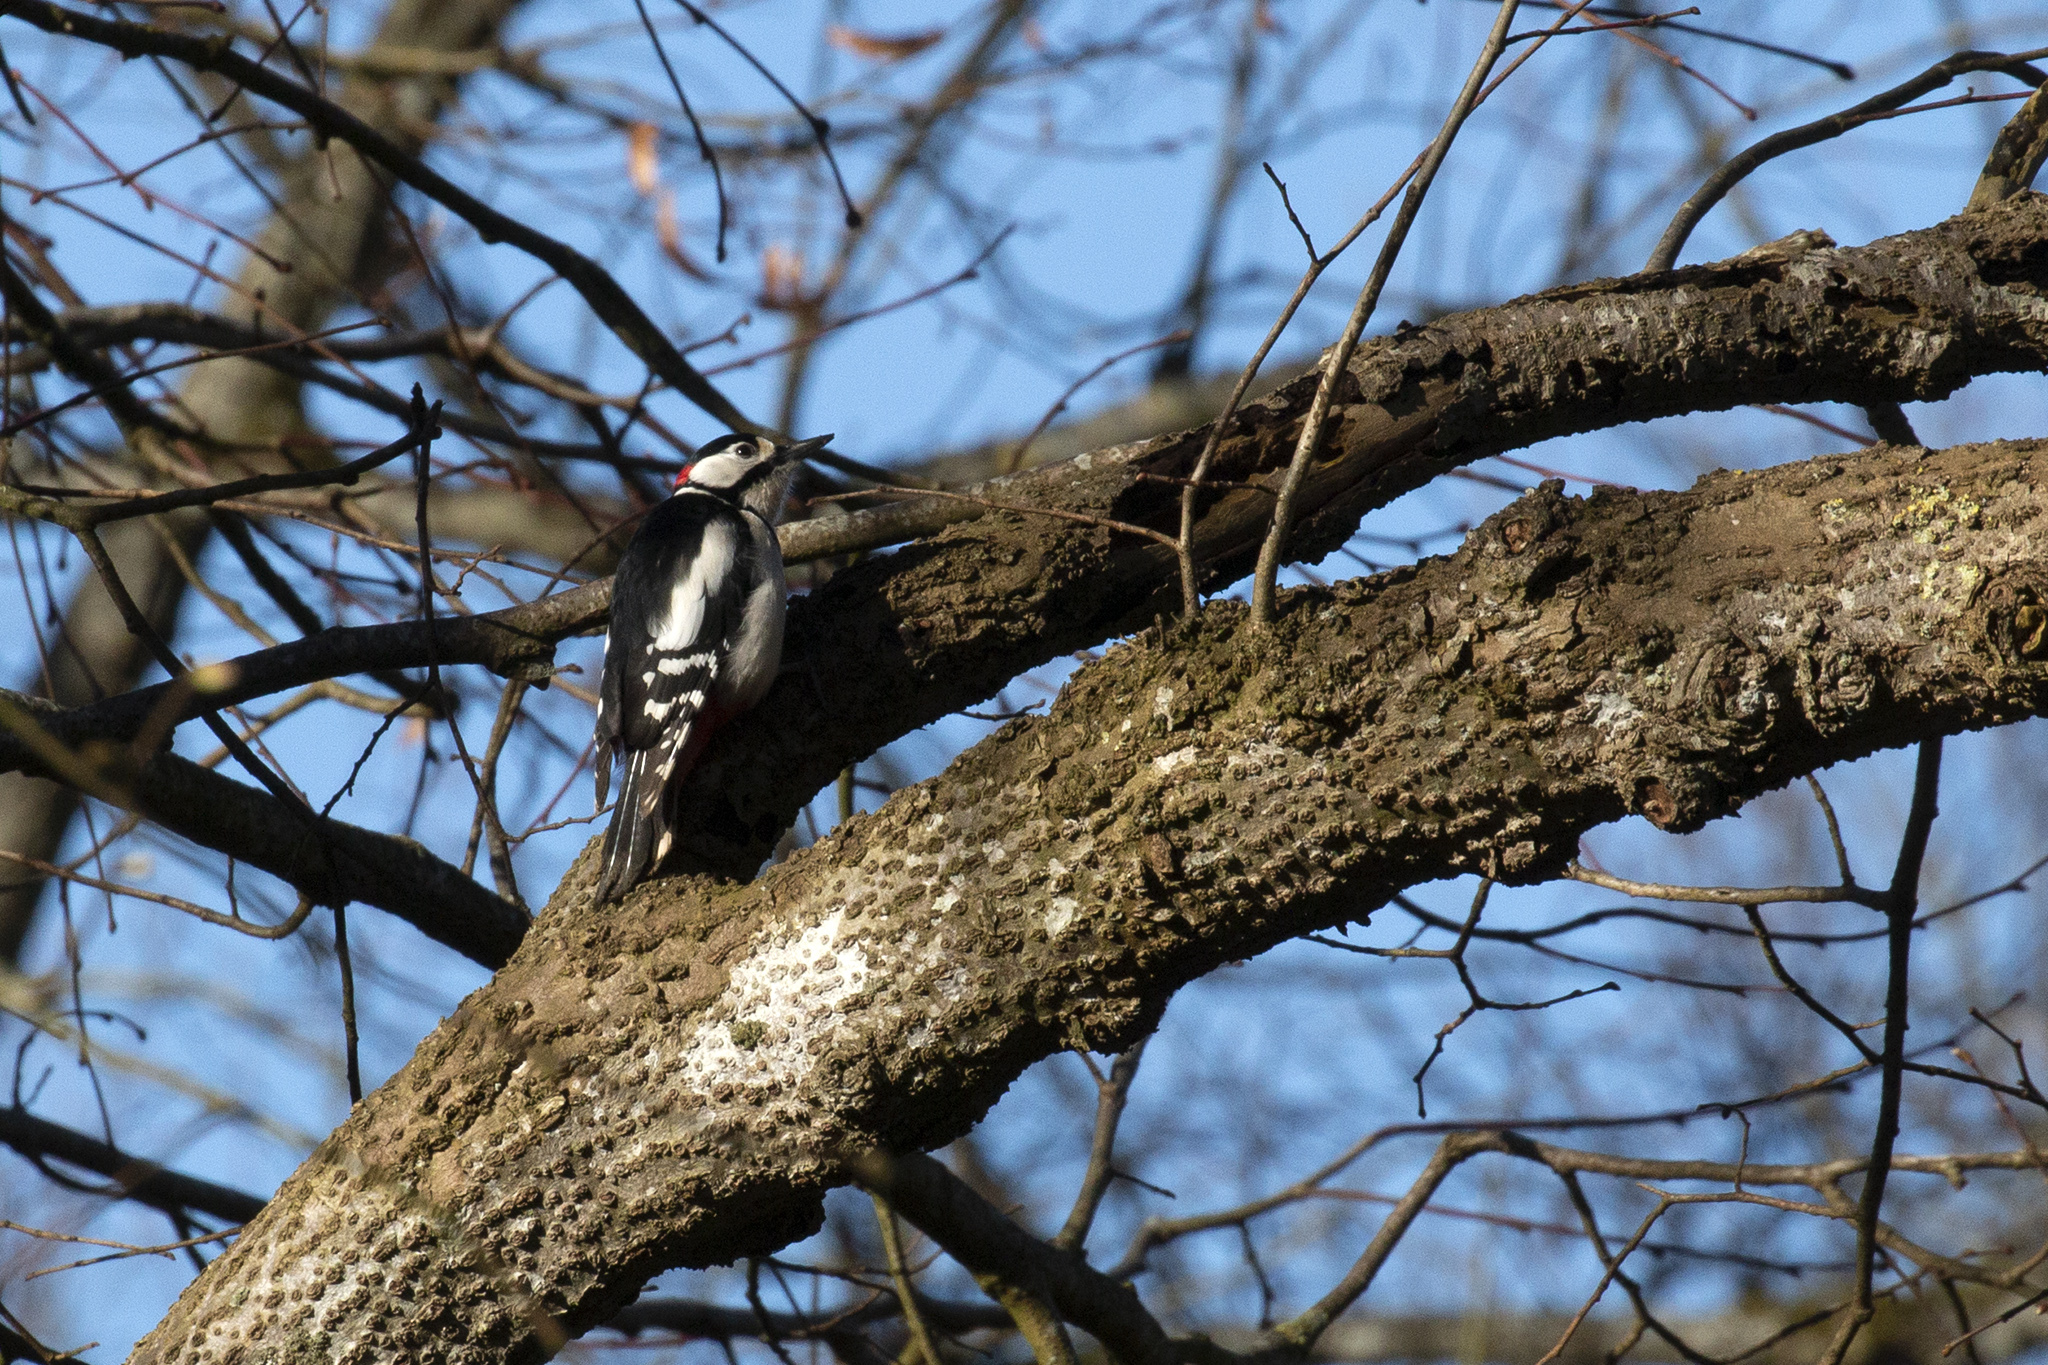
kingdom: Animalia
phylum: Chordata
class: Aves
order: Piciformes
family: Picidae
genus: Dendrocopos
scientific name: Dendrocopos major
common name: Great spotted woodpecker
